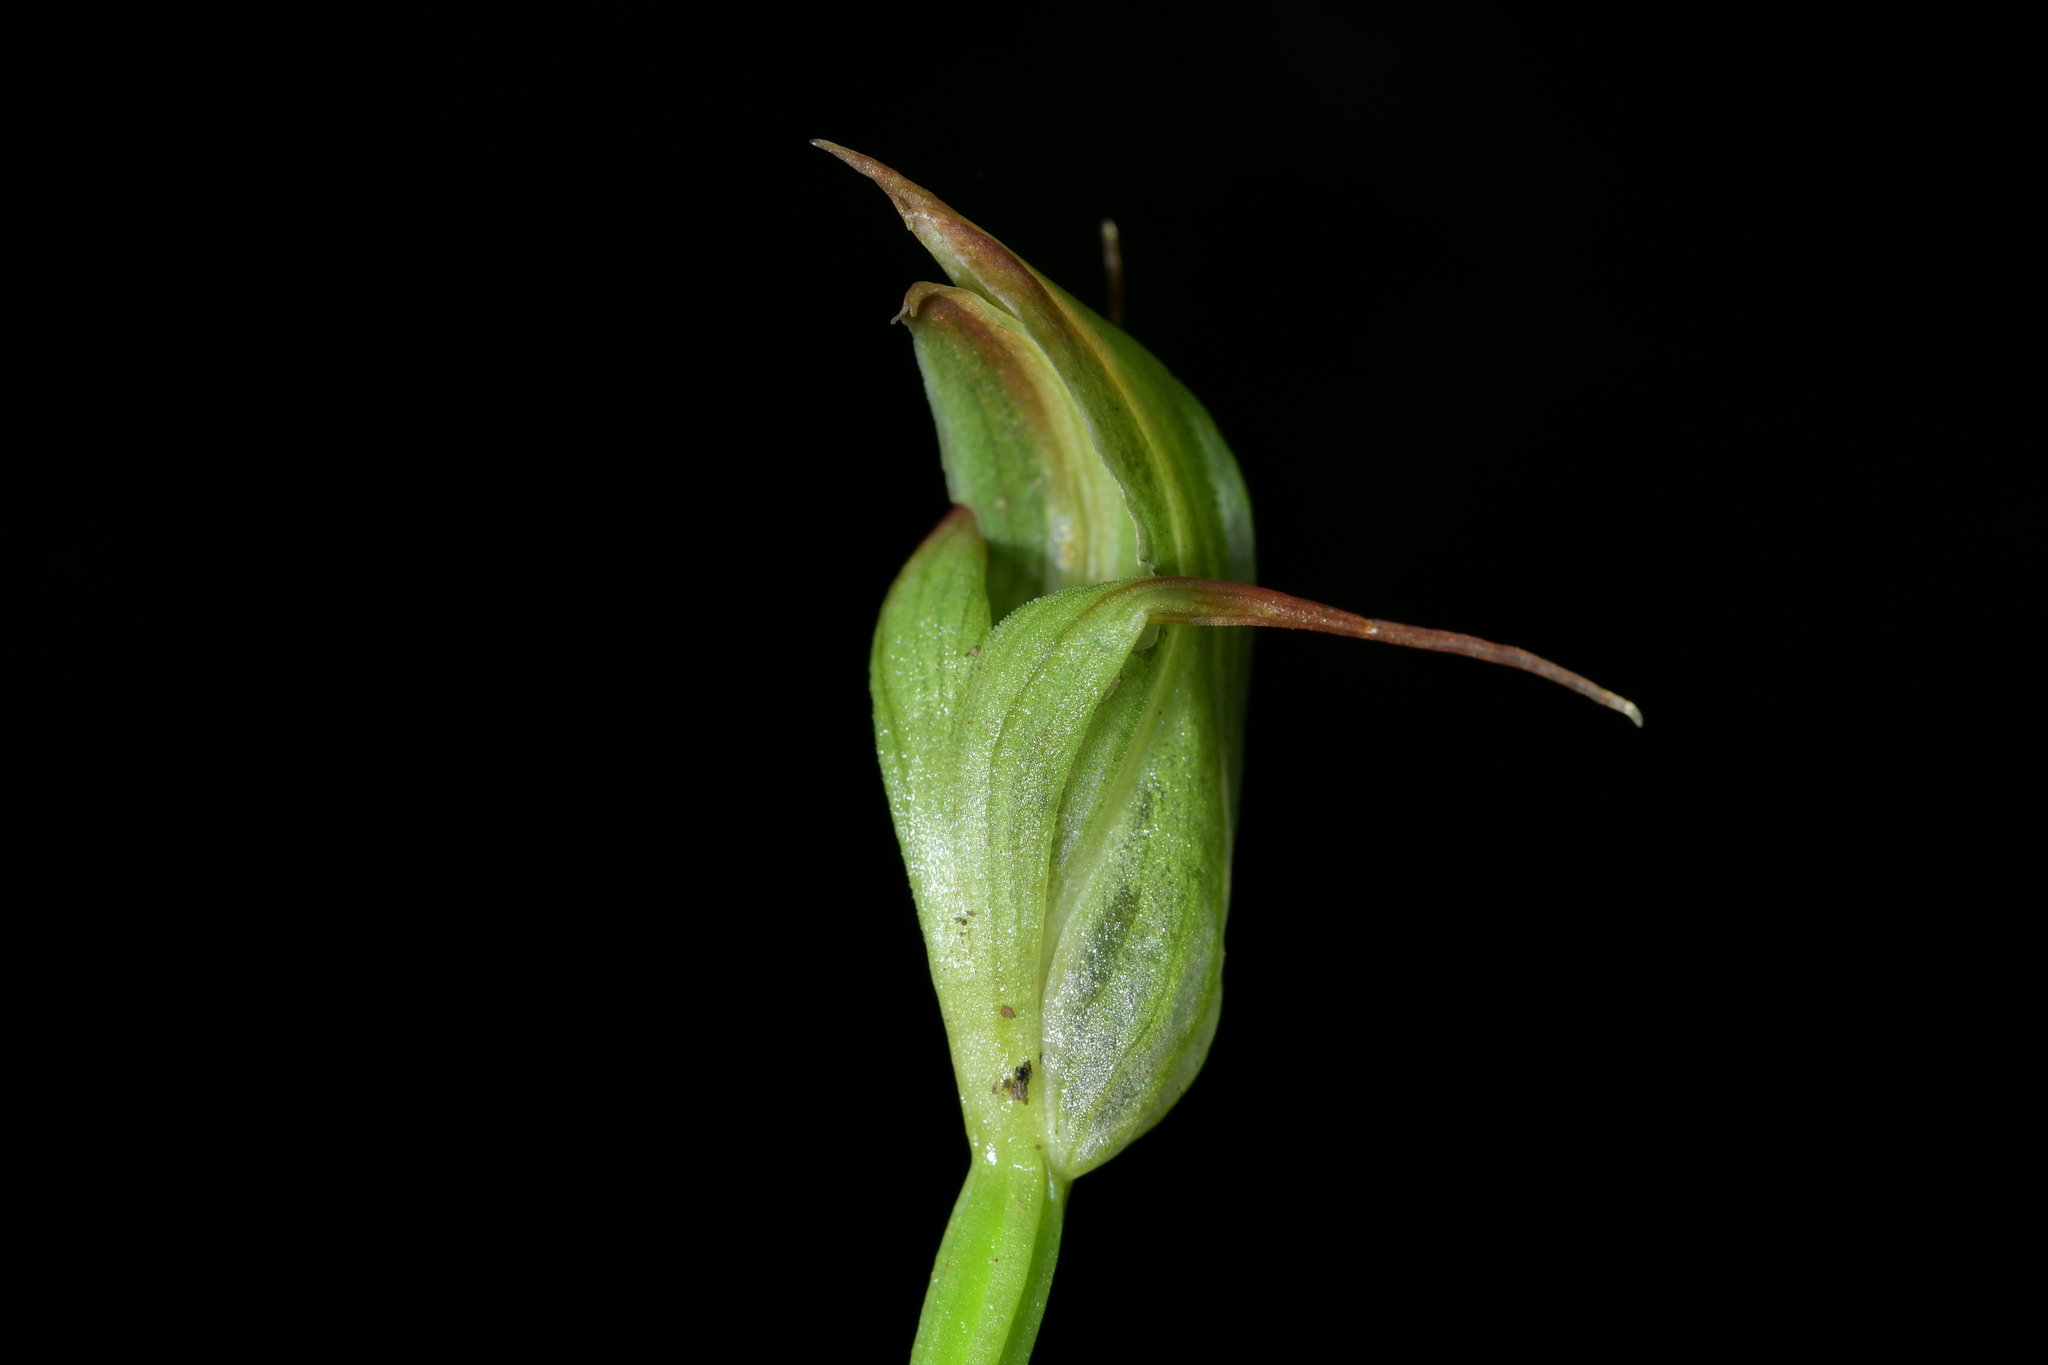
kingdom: Plantae
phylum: Tracheophyta
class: Liliopsida
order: Asparagales
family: Orchidaceae
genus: Pterostylis
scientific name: Pterostylis auriculata
